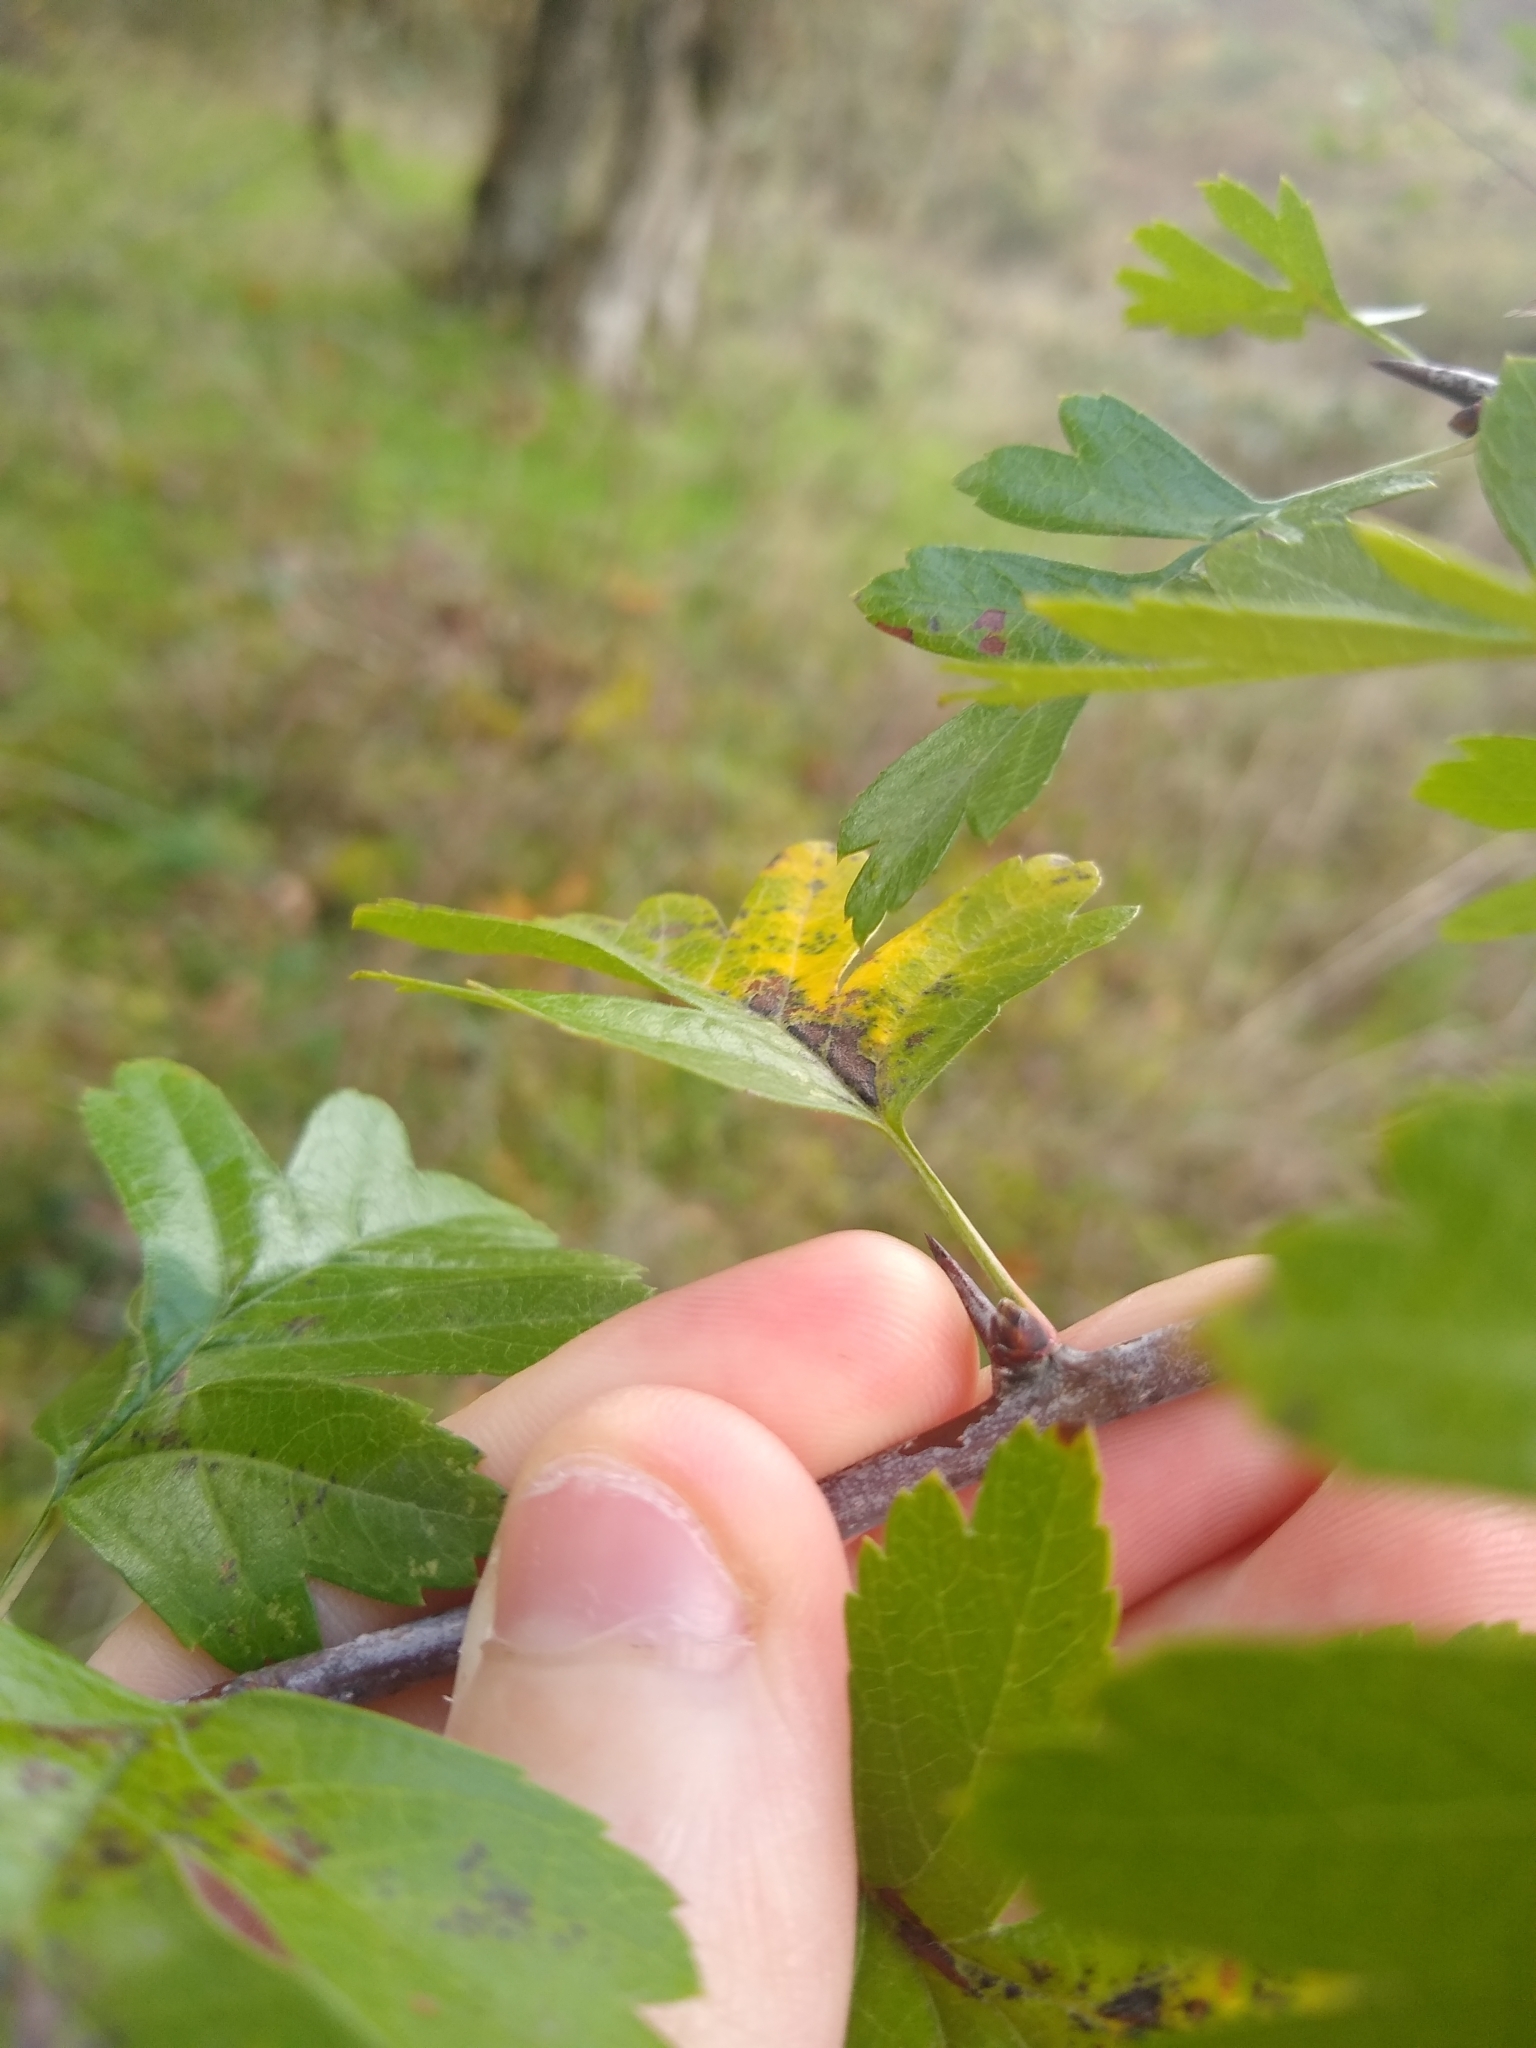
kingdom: Plantae
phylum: Tracheophyta
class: Magnoliopsida
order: Rosales
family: Rosaceae
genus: Crataegus
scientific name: Crataegus monogyna
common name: Hawthorn
